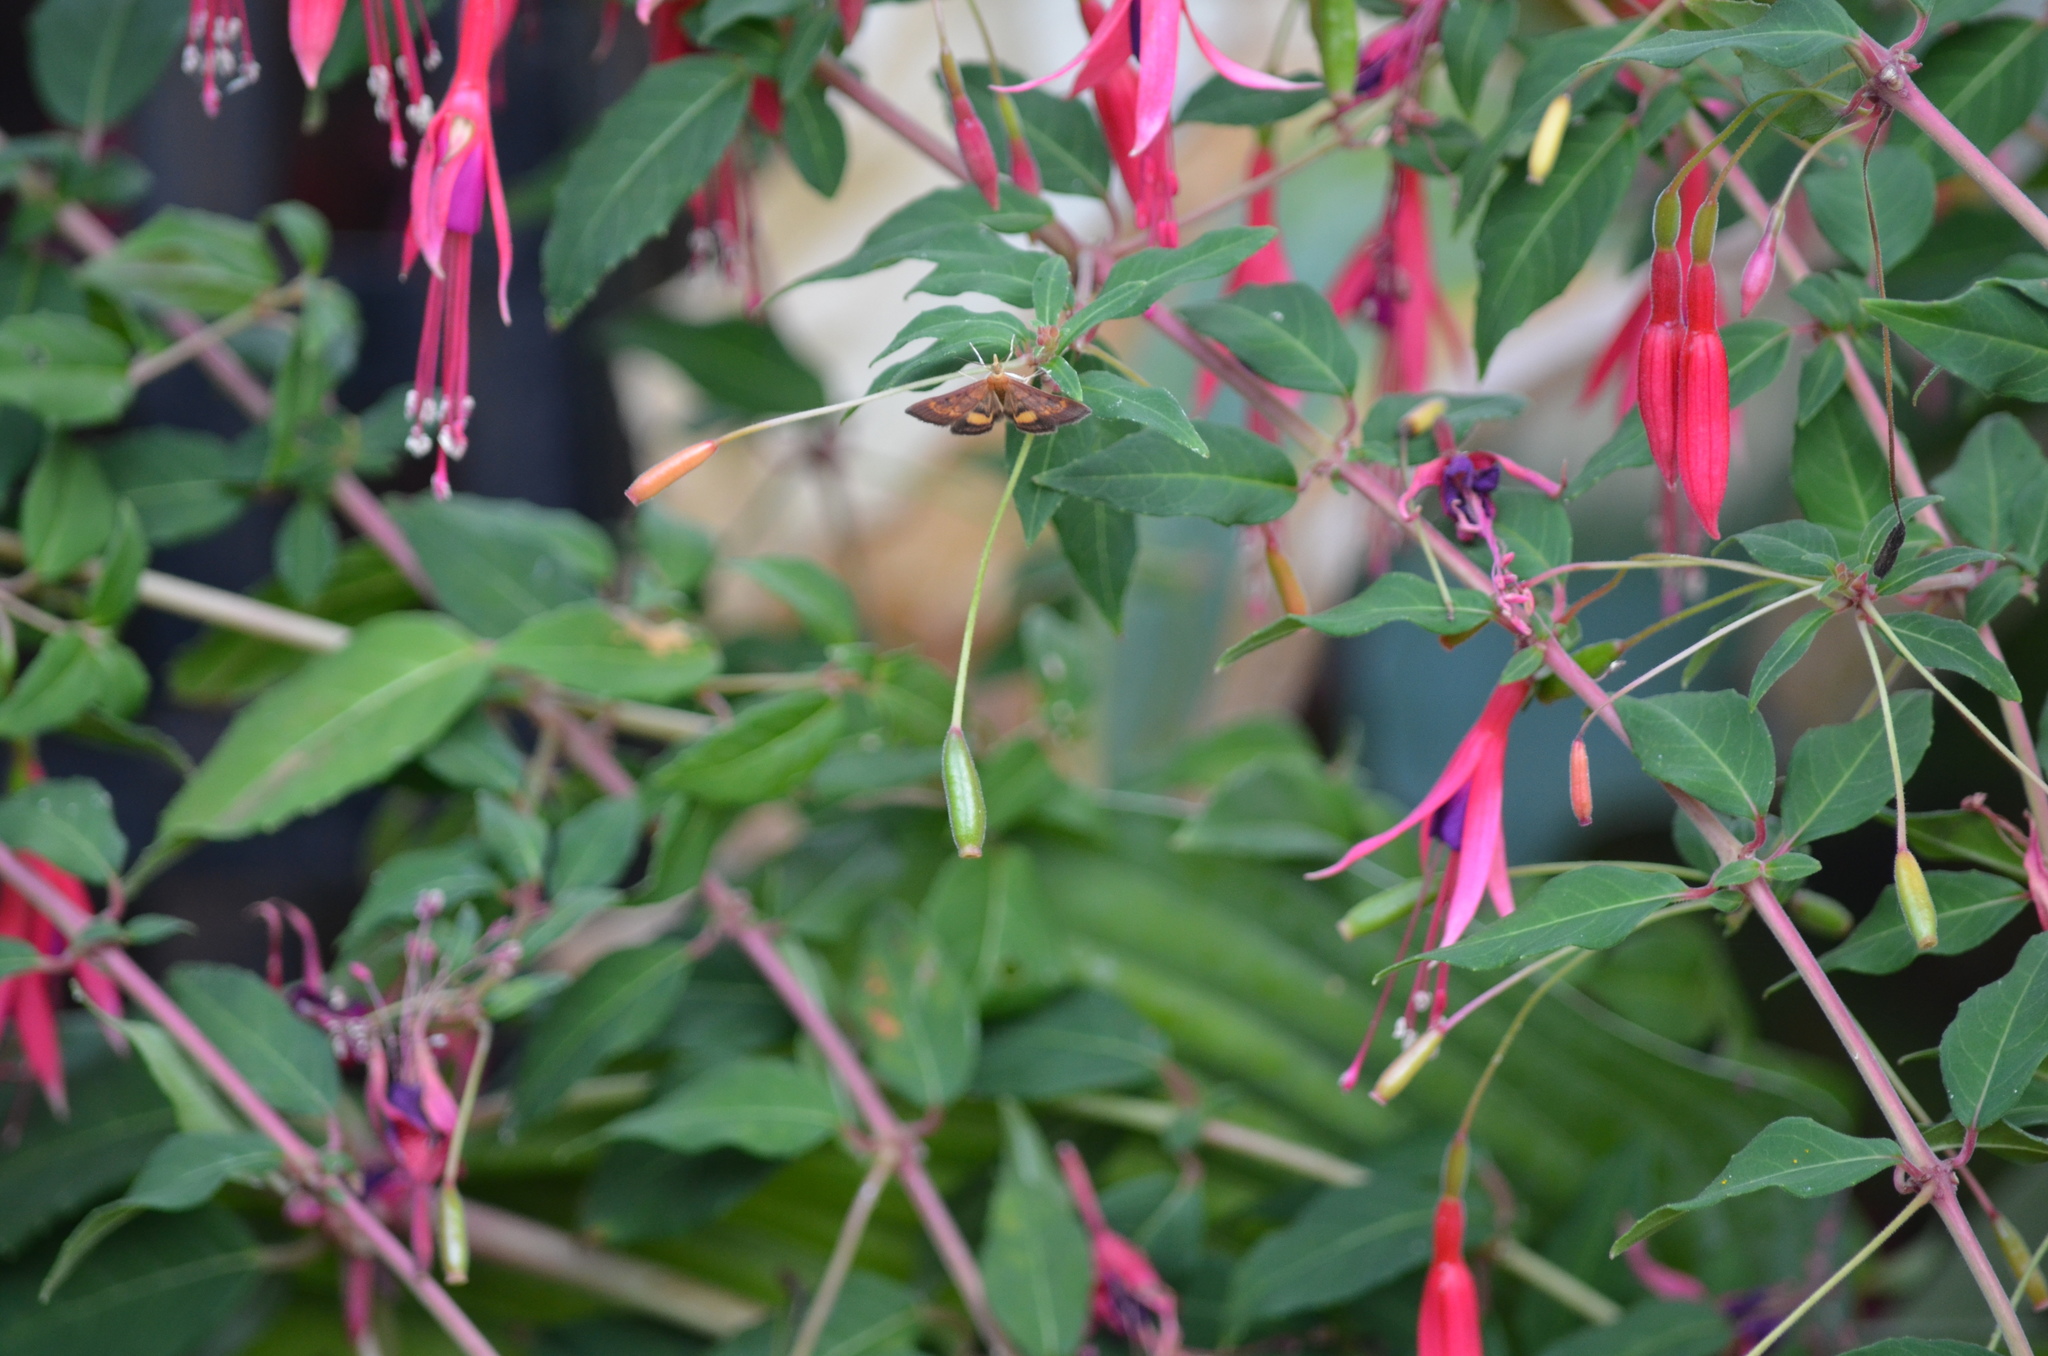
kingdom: Animalia
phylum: Arthropoda
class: Insecta
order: Lepidoptera
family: Crambidae
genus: Pyrausta
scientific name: Pyrausta californicalis
